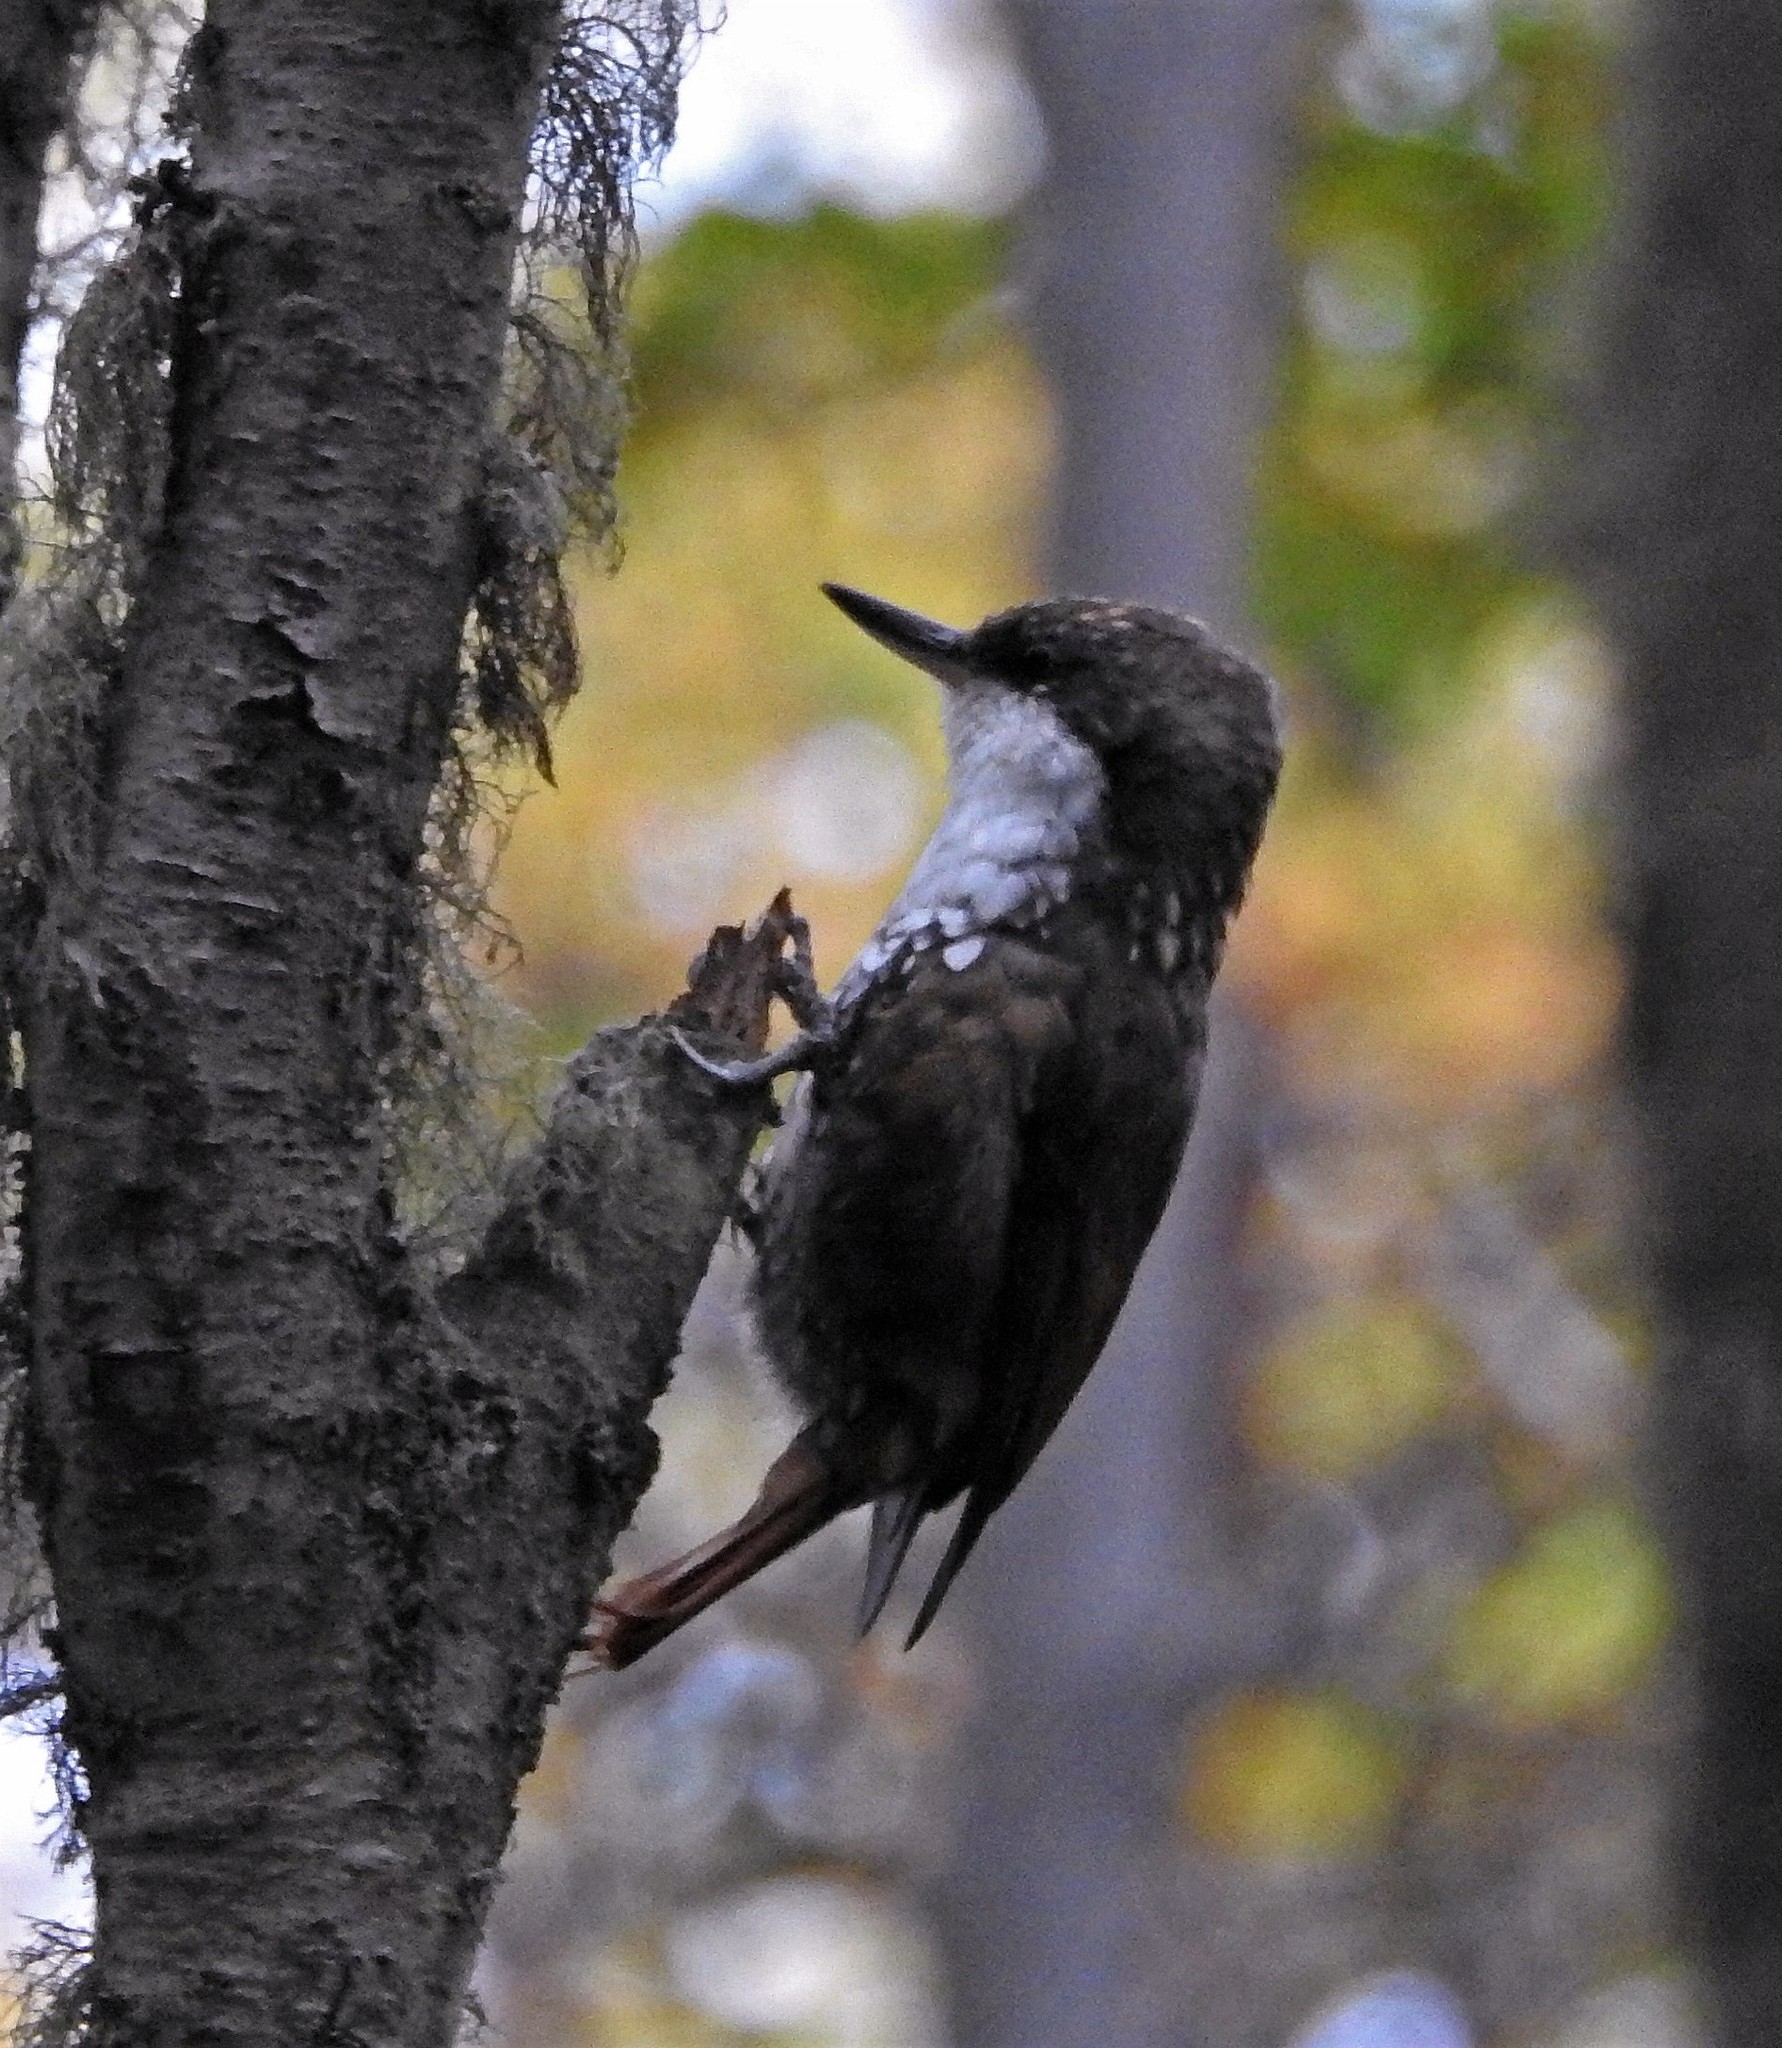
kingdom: Animalia
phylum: Chordata
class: Aves
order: Passeriformes
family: Furnariidae
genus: Pygarrhichas
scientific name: Pygarrhichas albogularis
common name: White-throated treerunner
